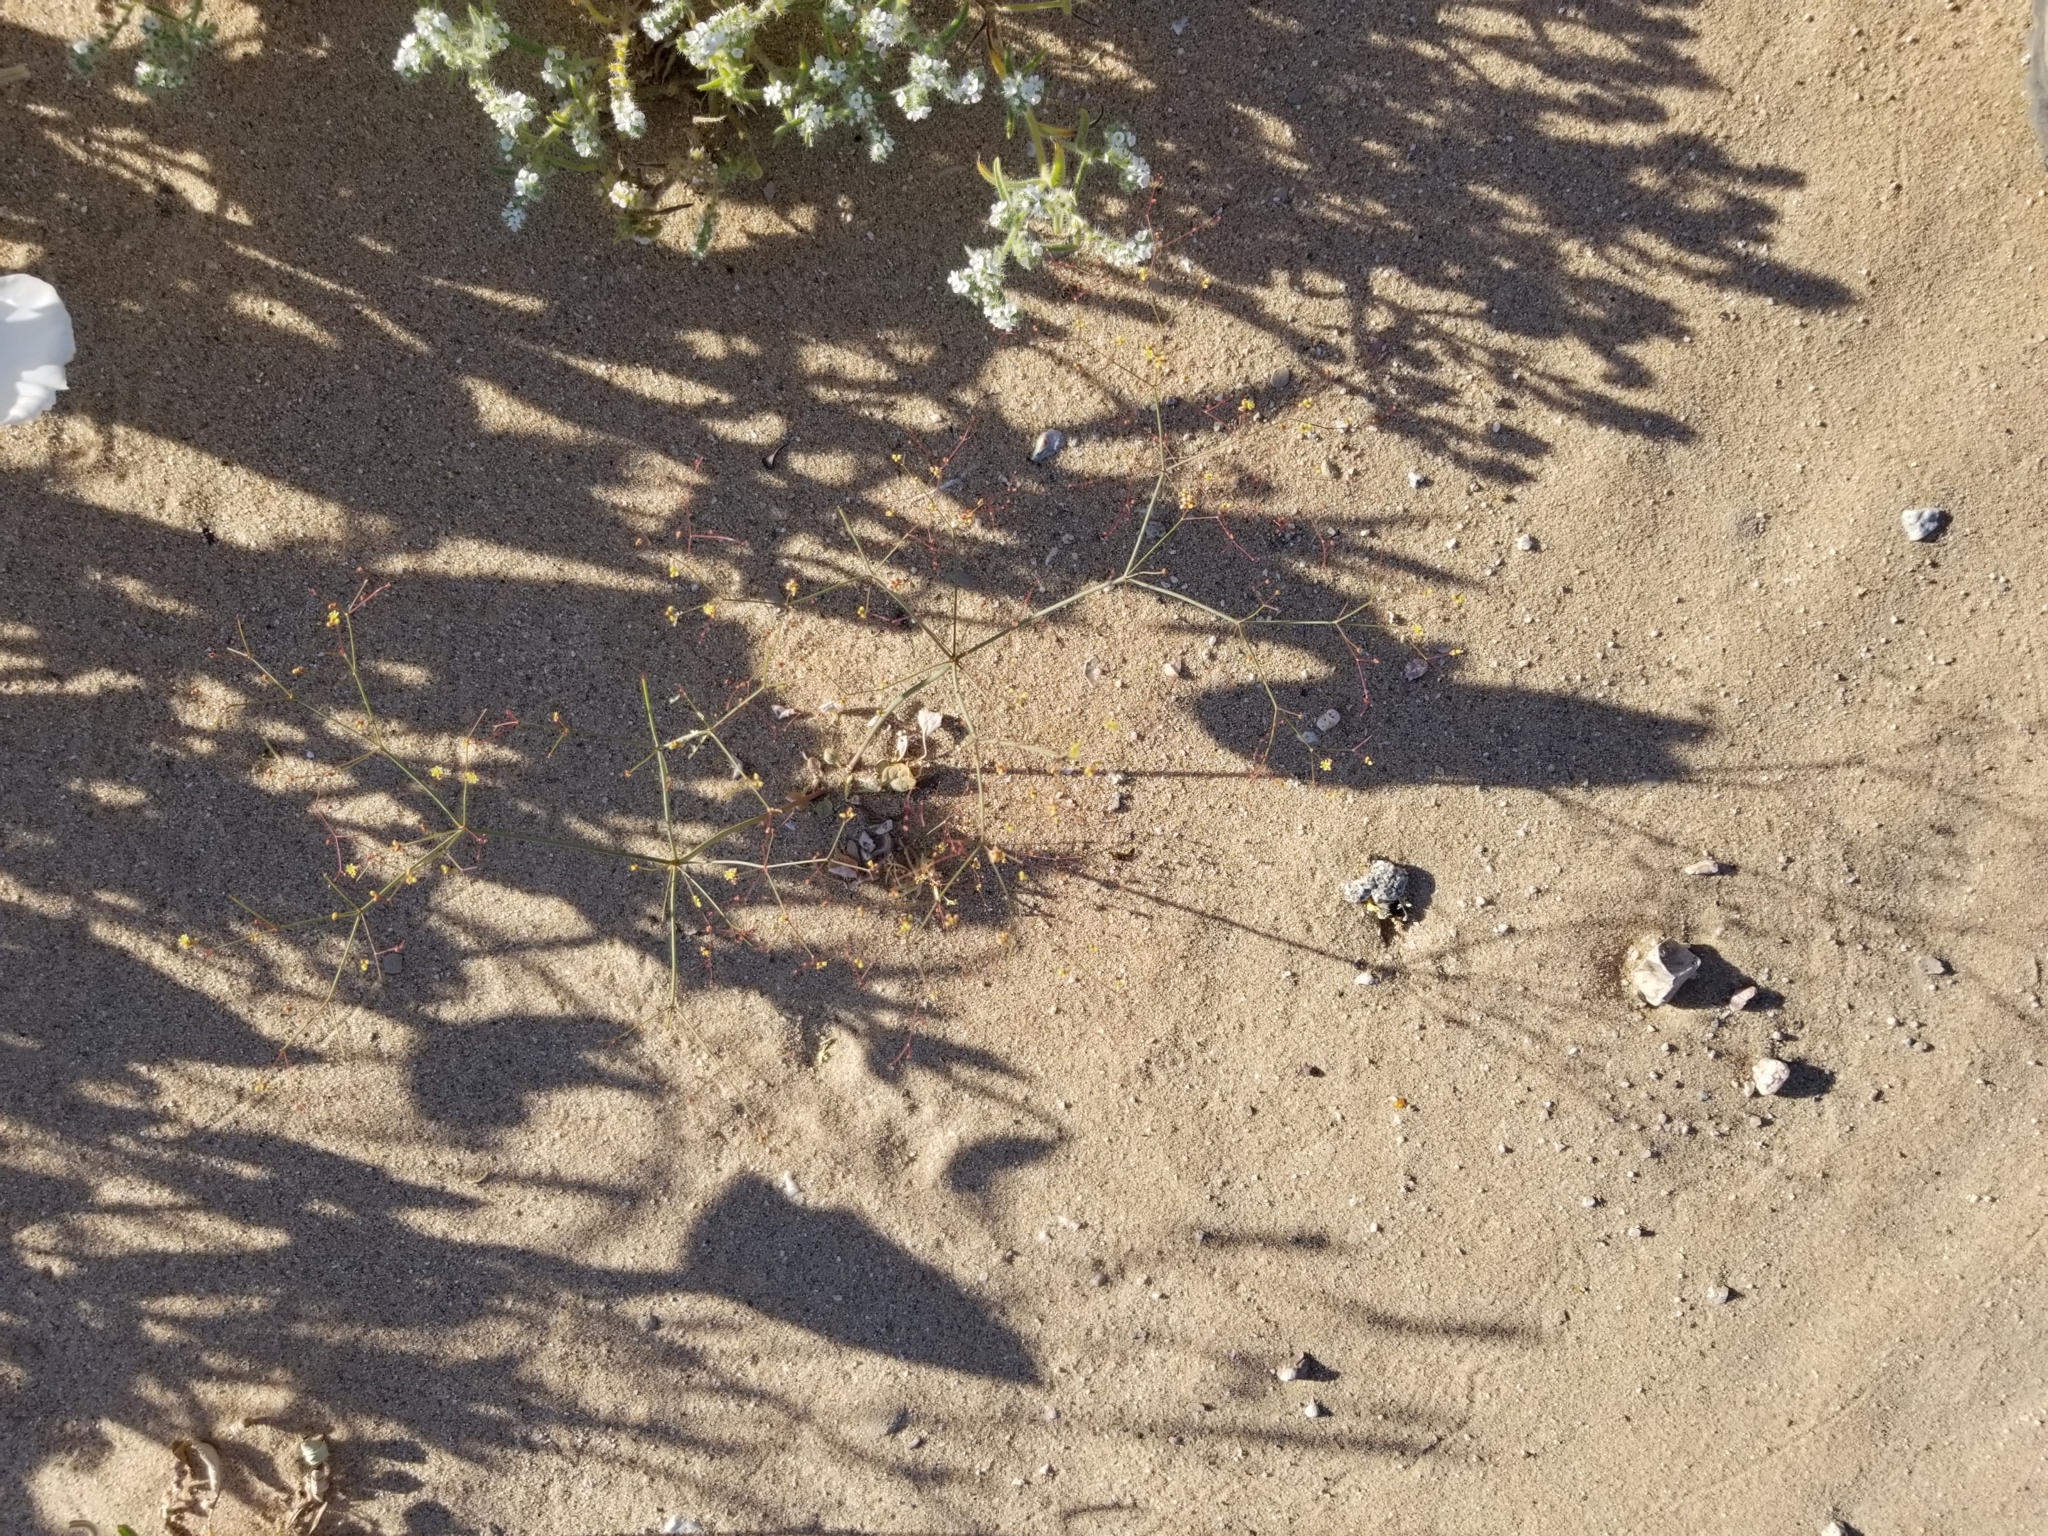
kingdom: Plantae
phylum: Tracheophyta
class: Magnoliopsida
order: Caryophyllales
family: Polygonaceae
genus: Eriogonum
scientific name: Eriogonum inflatum
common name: Desert trumpet
